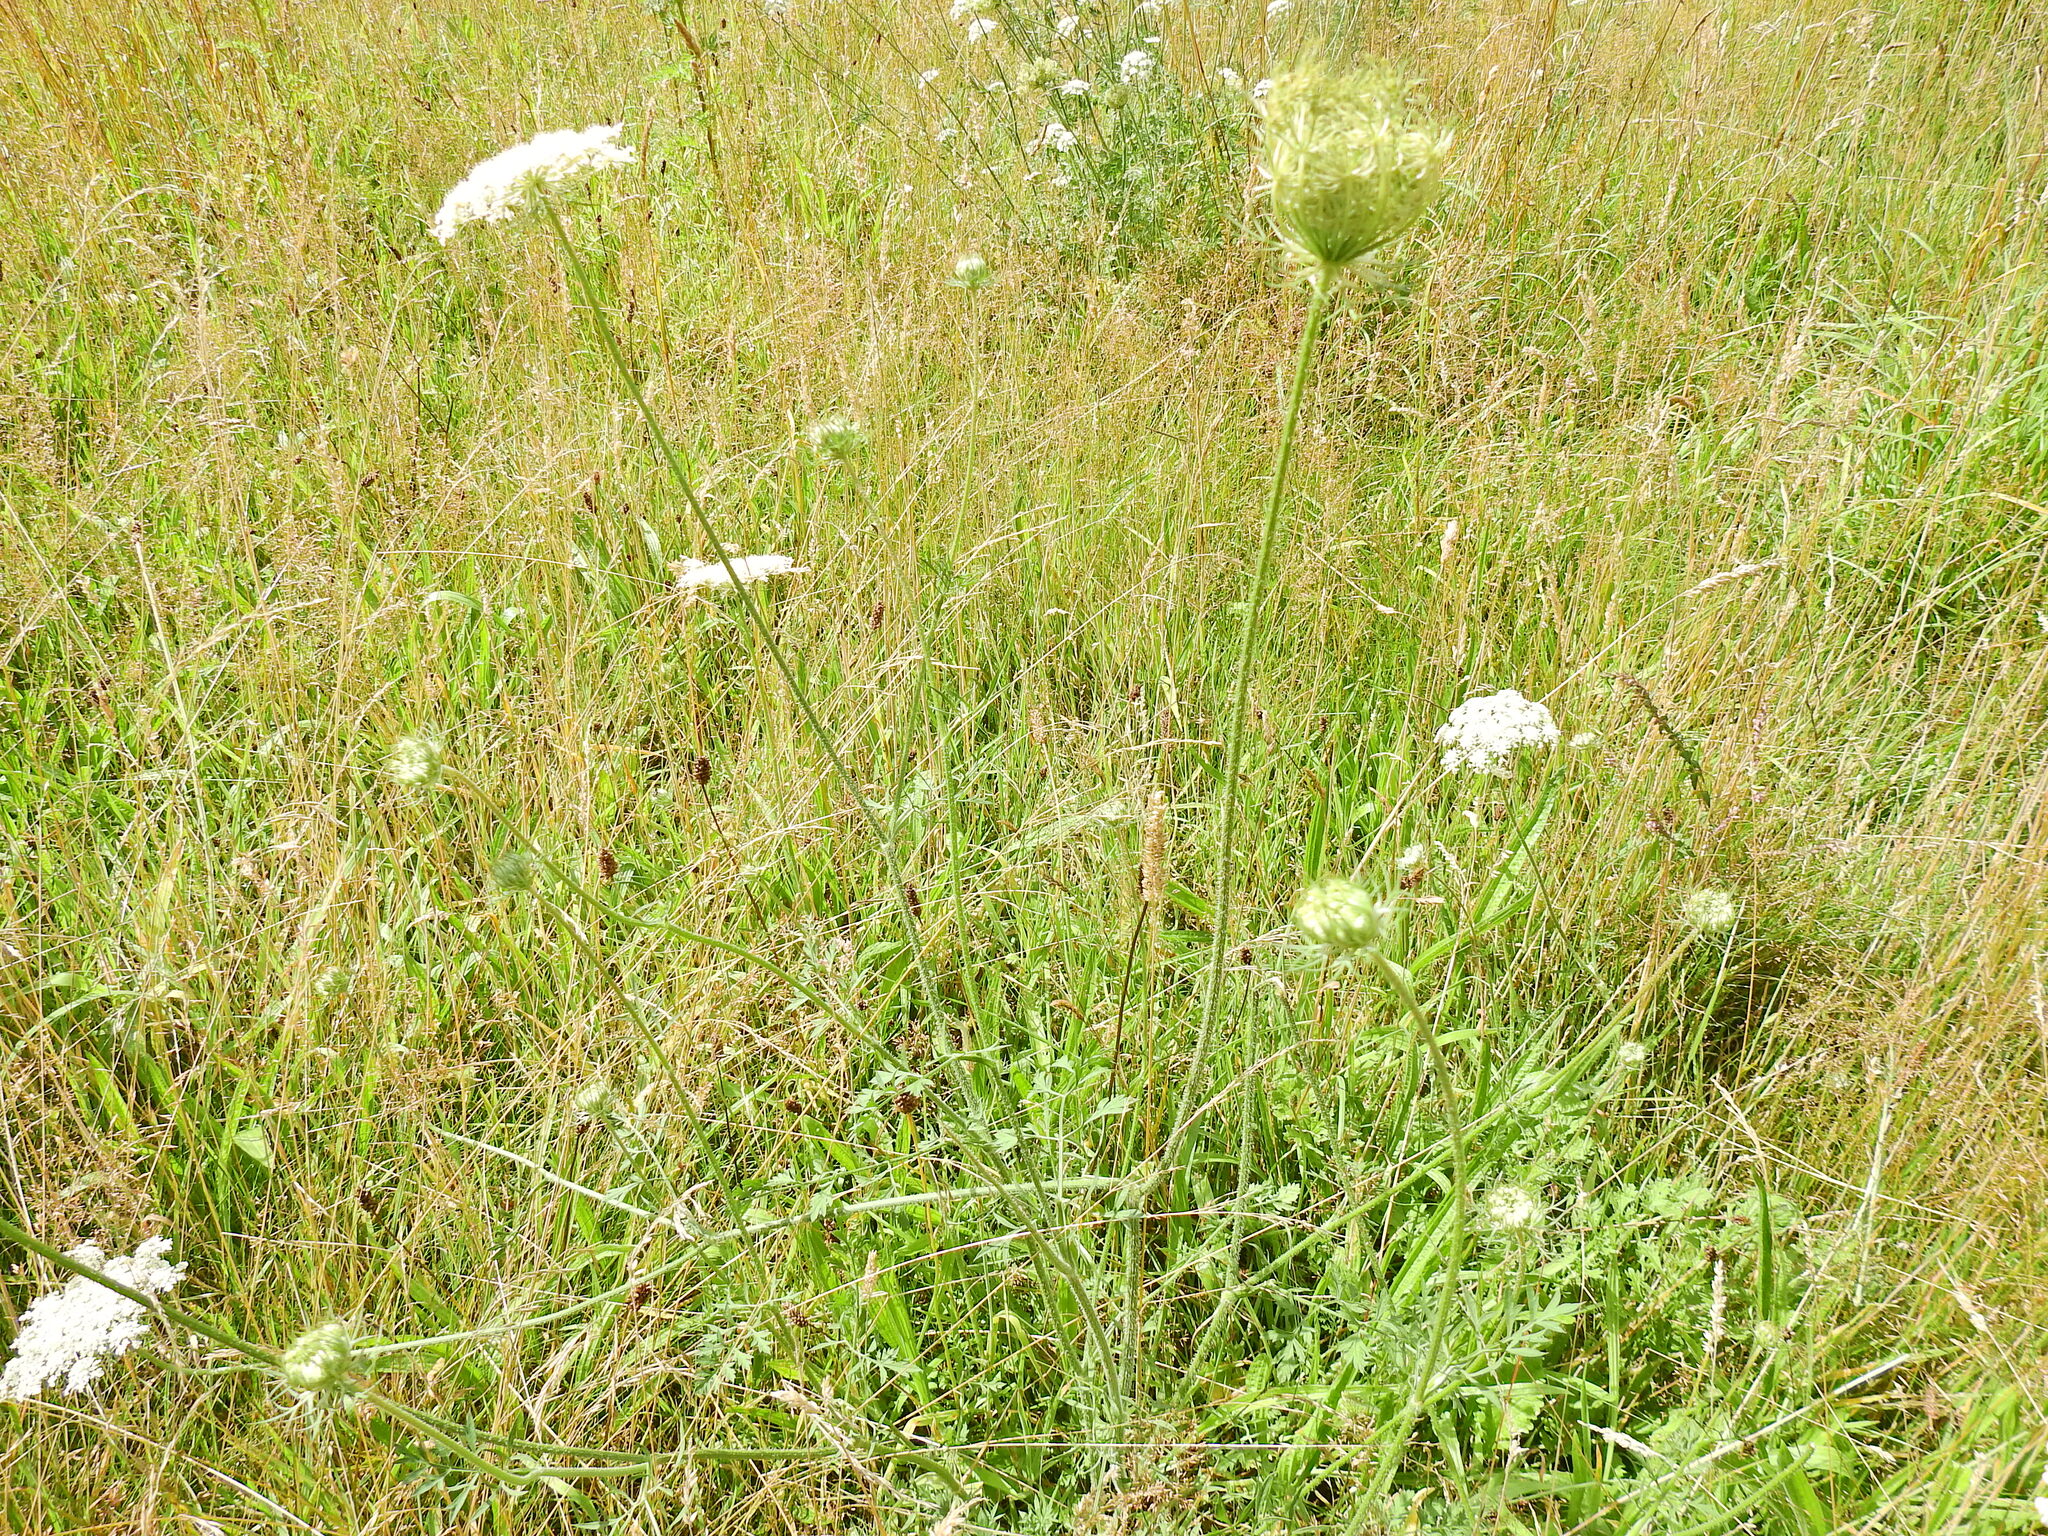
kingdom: Plantae
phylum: Tracheophyta
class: Magnoliopsida
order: Apiales
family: Apiaceae
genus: Daucus
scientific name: Daucus carota
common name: Wild carrot
